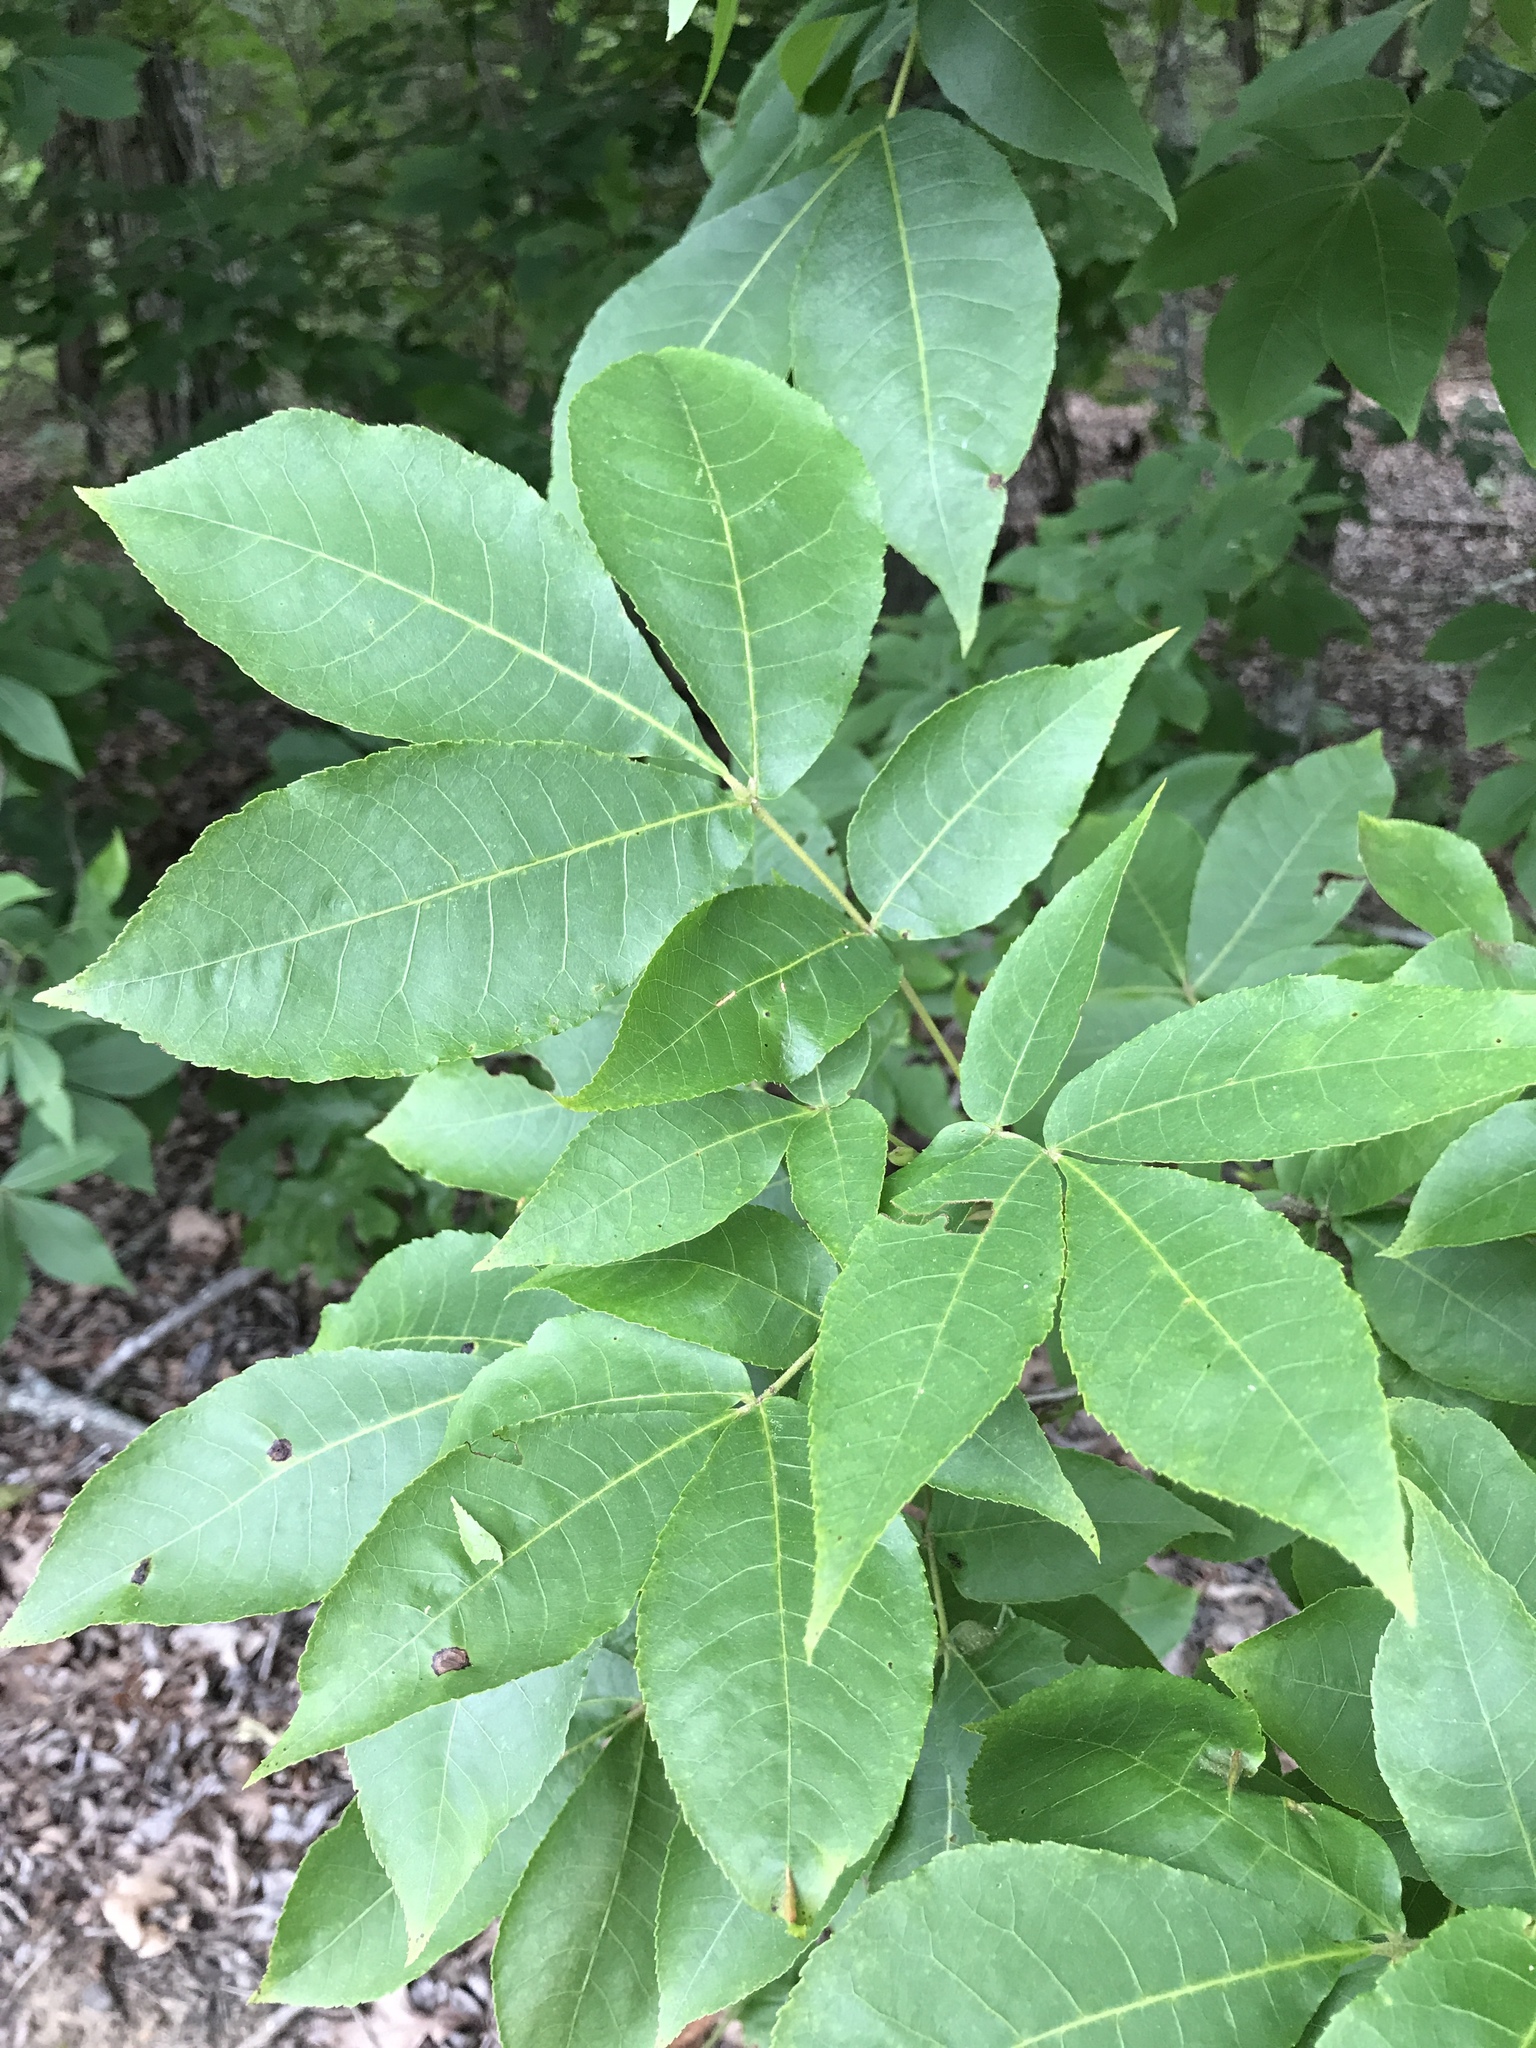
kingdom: Plantae
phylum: Tracheophyta
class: Magnoliopsida
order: Fagales
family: Juglandaceae
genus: Carya
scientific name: Carya glabra
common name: Pignut hickory
